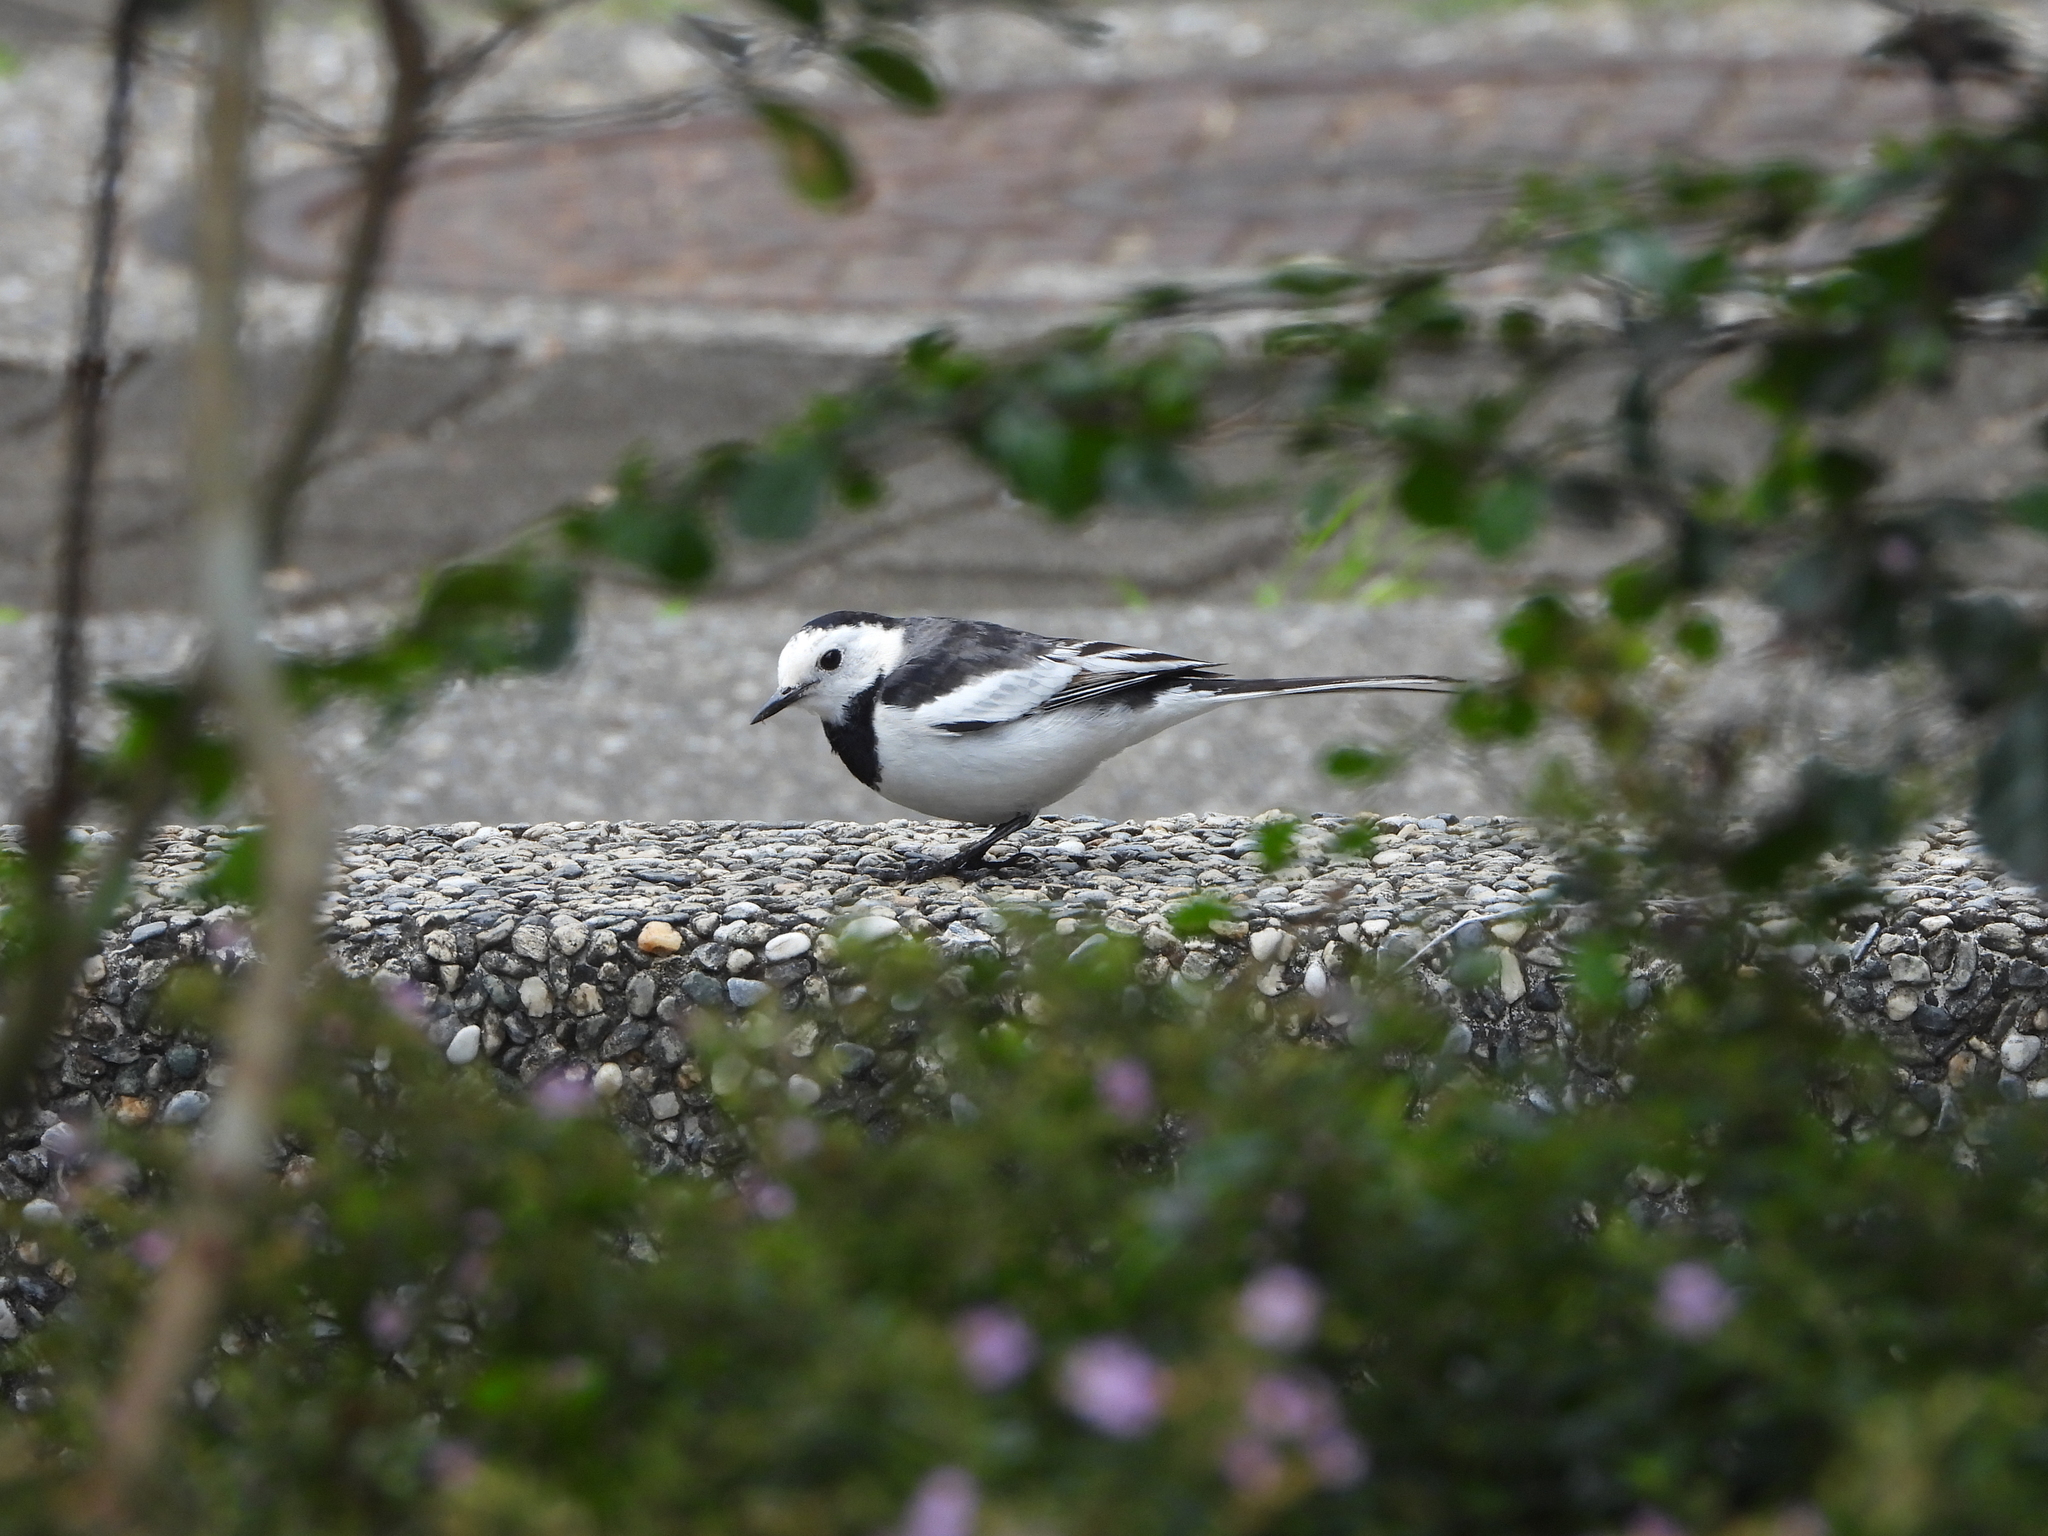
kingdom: Animalia
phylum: Chordata
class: Aves
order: Passeriformes
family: Motacillidae
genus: Motacilla
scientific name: Motacilla alba
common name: White wagtail
